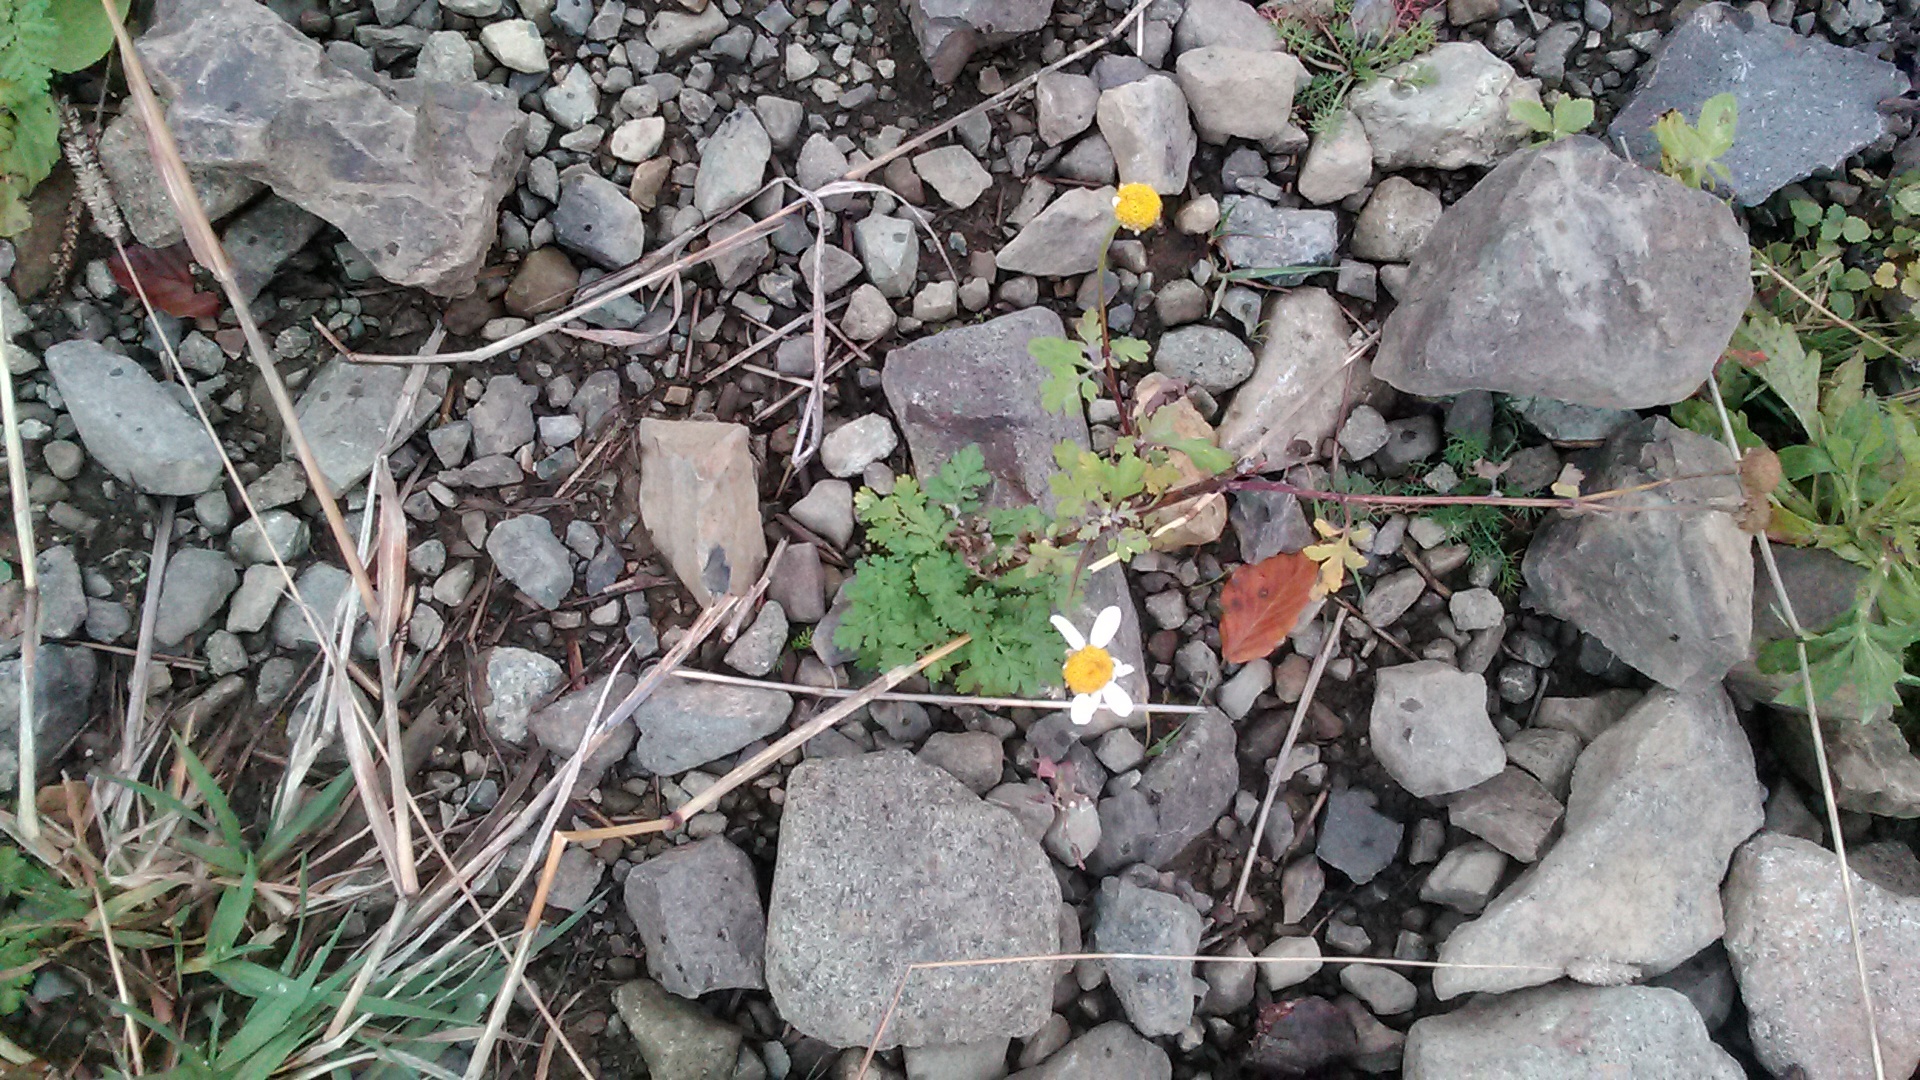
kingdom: Plantae
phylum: Tracheophyta
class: Magnoliopsida
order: Asterales
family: Asteraceae
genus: Tanacetum
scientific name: Tanacetum partheniifolium
